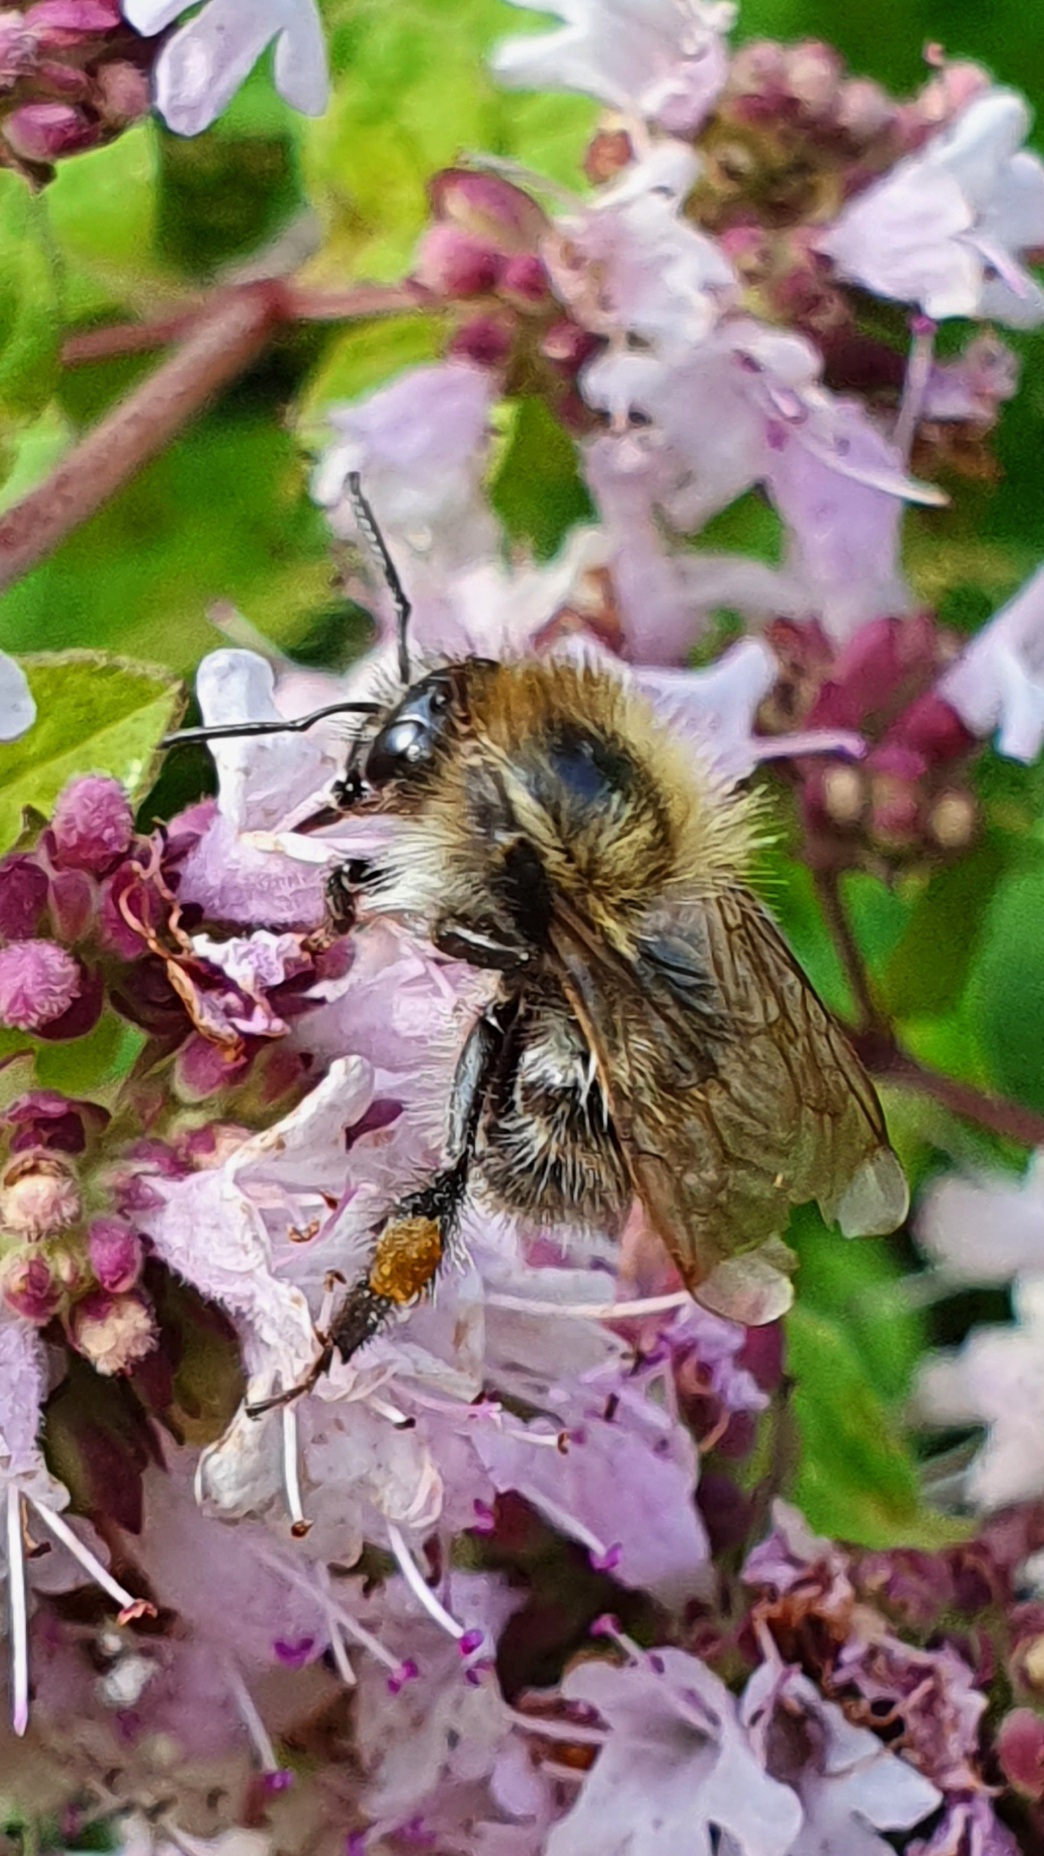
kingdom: Animalia
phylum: Arthropoda
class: Insecta
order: Hymenoptera
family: Apidae
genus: Bombus
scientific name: Bombus pascuorum
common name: Common carder bee
